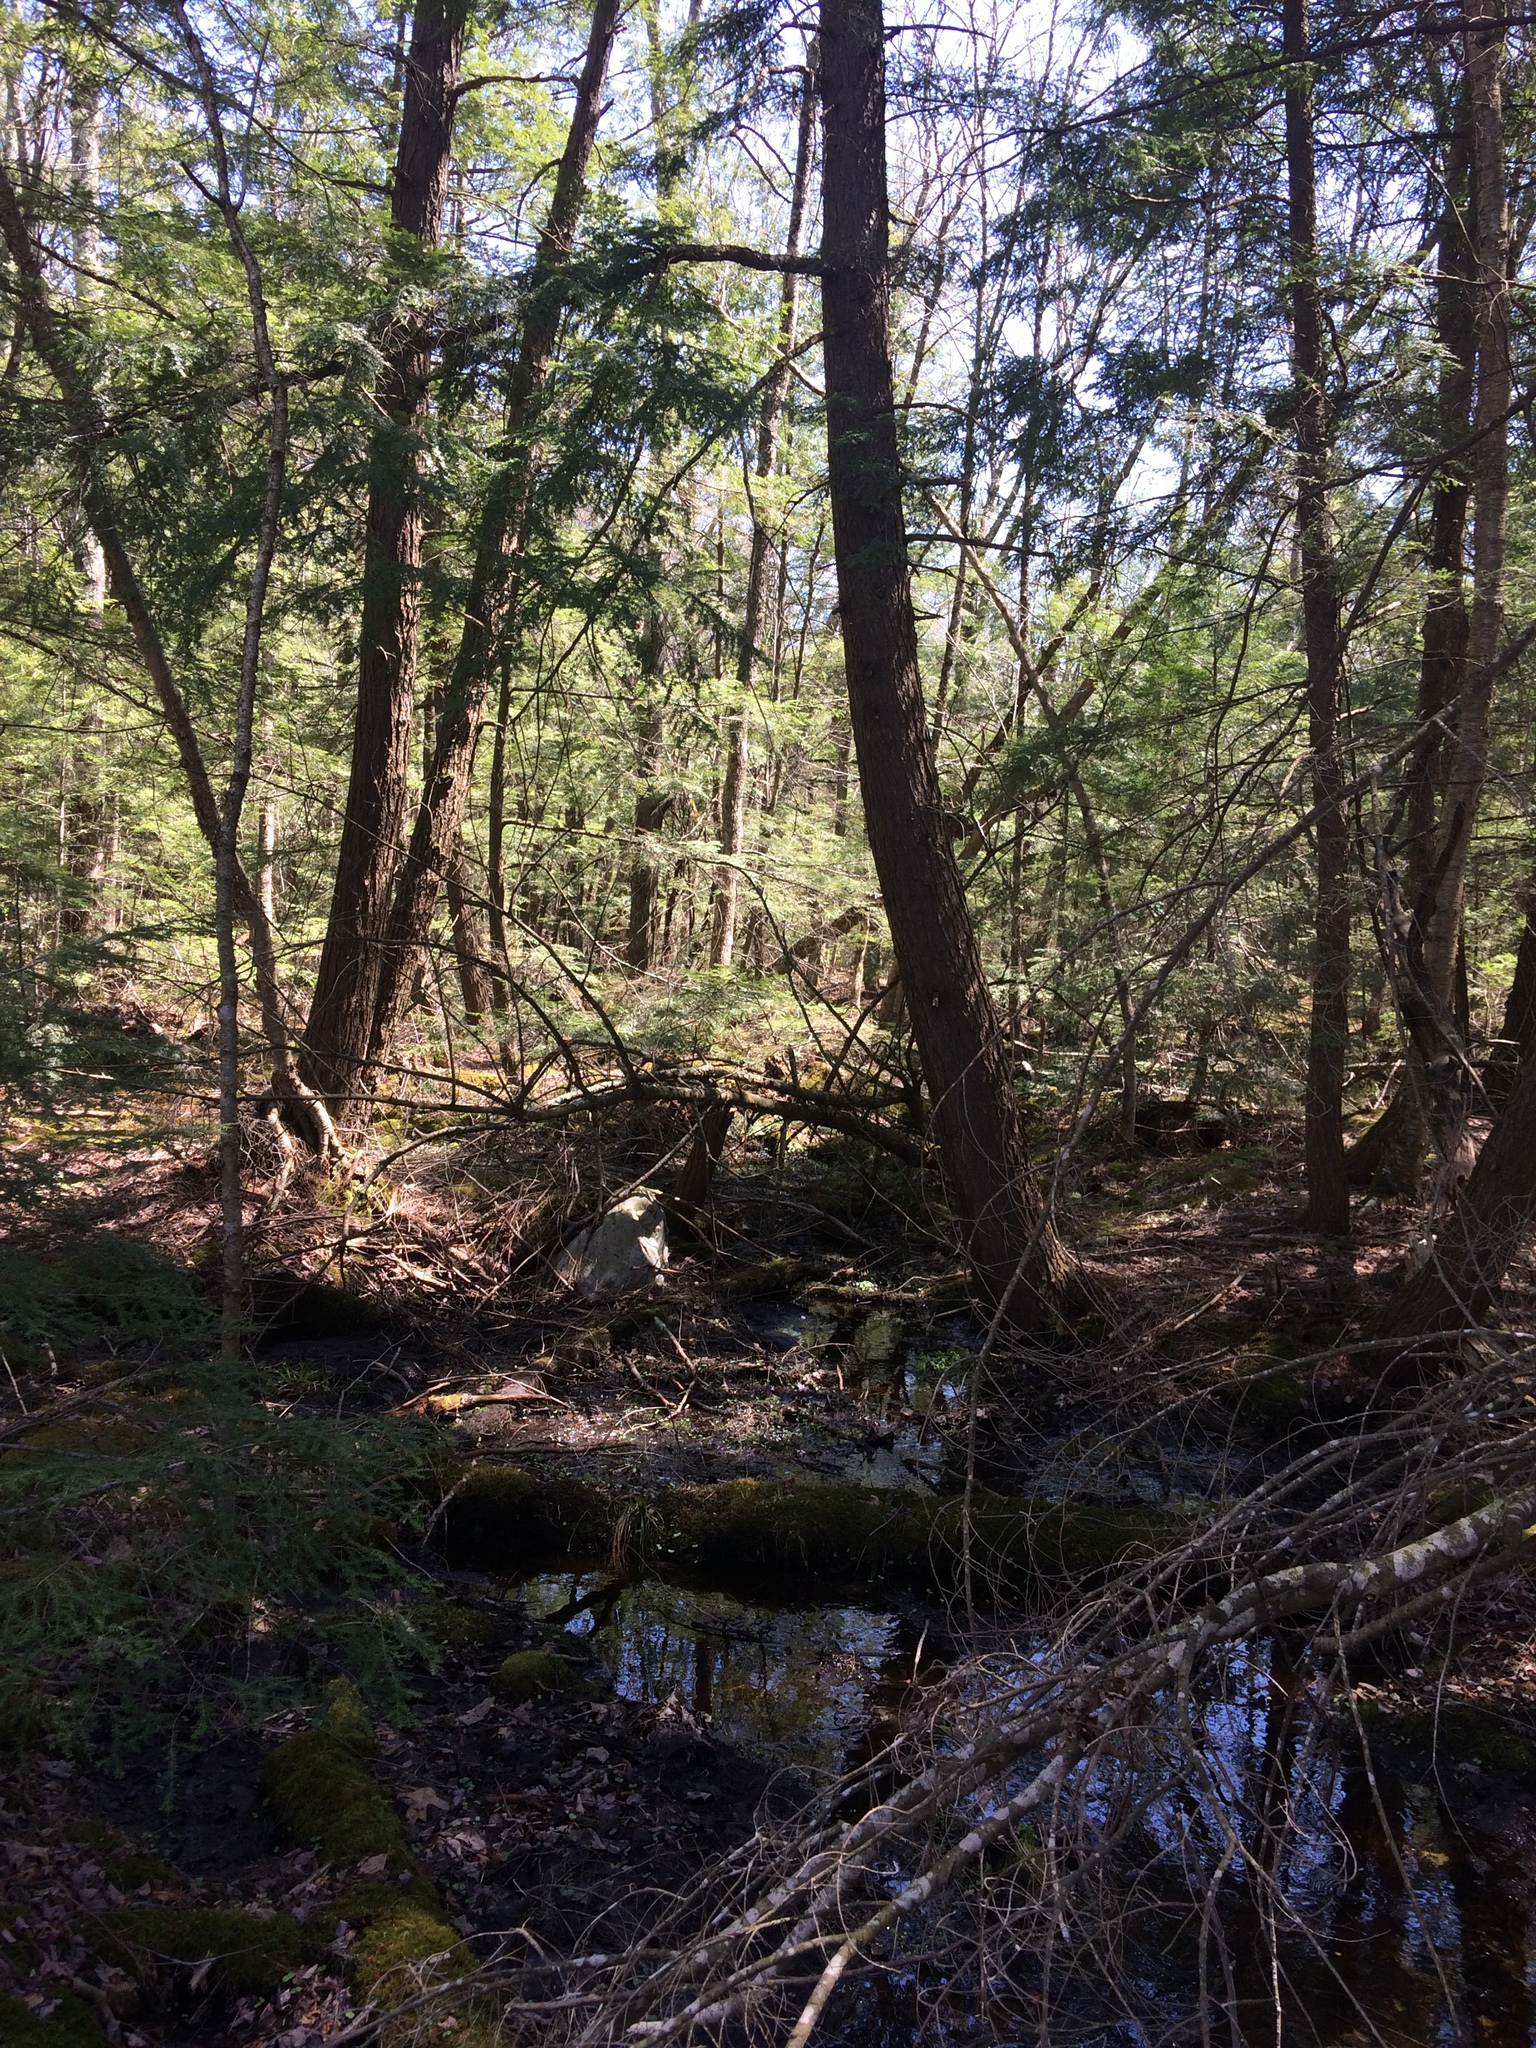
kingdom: Plantae
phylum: Tracheophyta
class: Pinopsida
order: Pinales
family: Pinaceae
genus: Tsuga
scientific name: Tsuga canadensis
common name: Eastern hemlock
